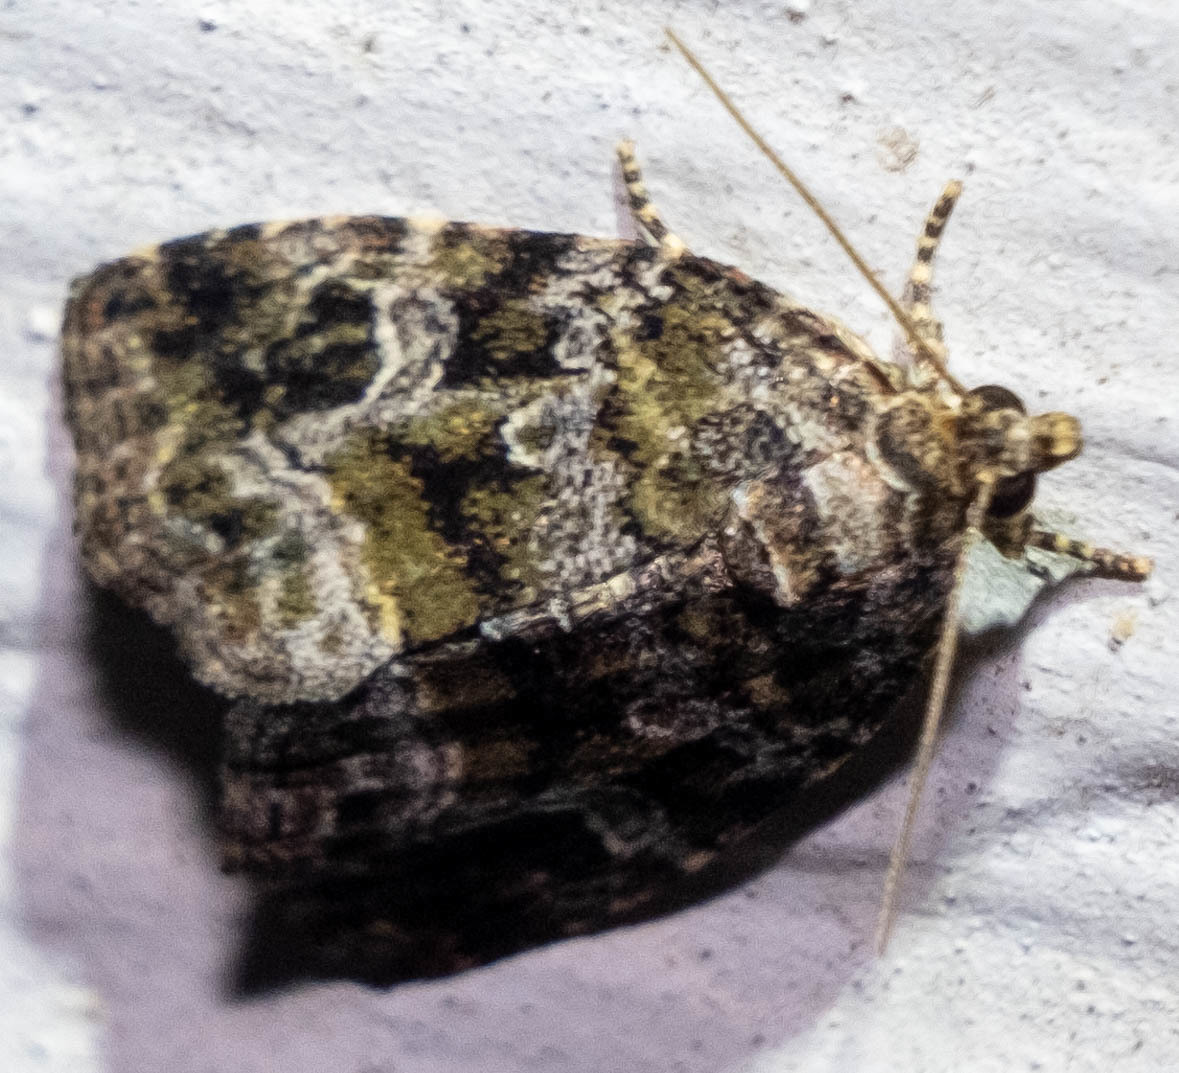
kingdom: Animalia
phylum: Arthropoda
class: Insecta
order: Lepidoptera
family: Noctuidae
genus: Protodeltote
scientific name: Protodeltote muscosula
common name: Large mossy glyph
